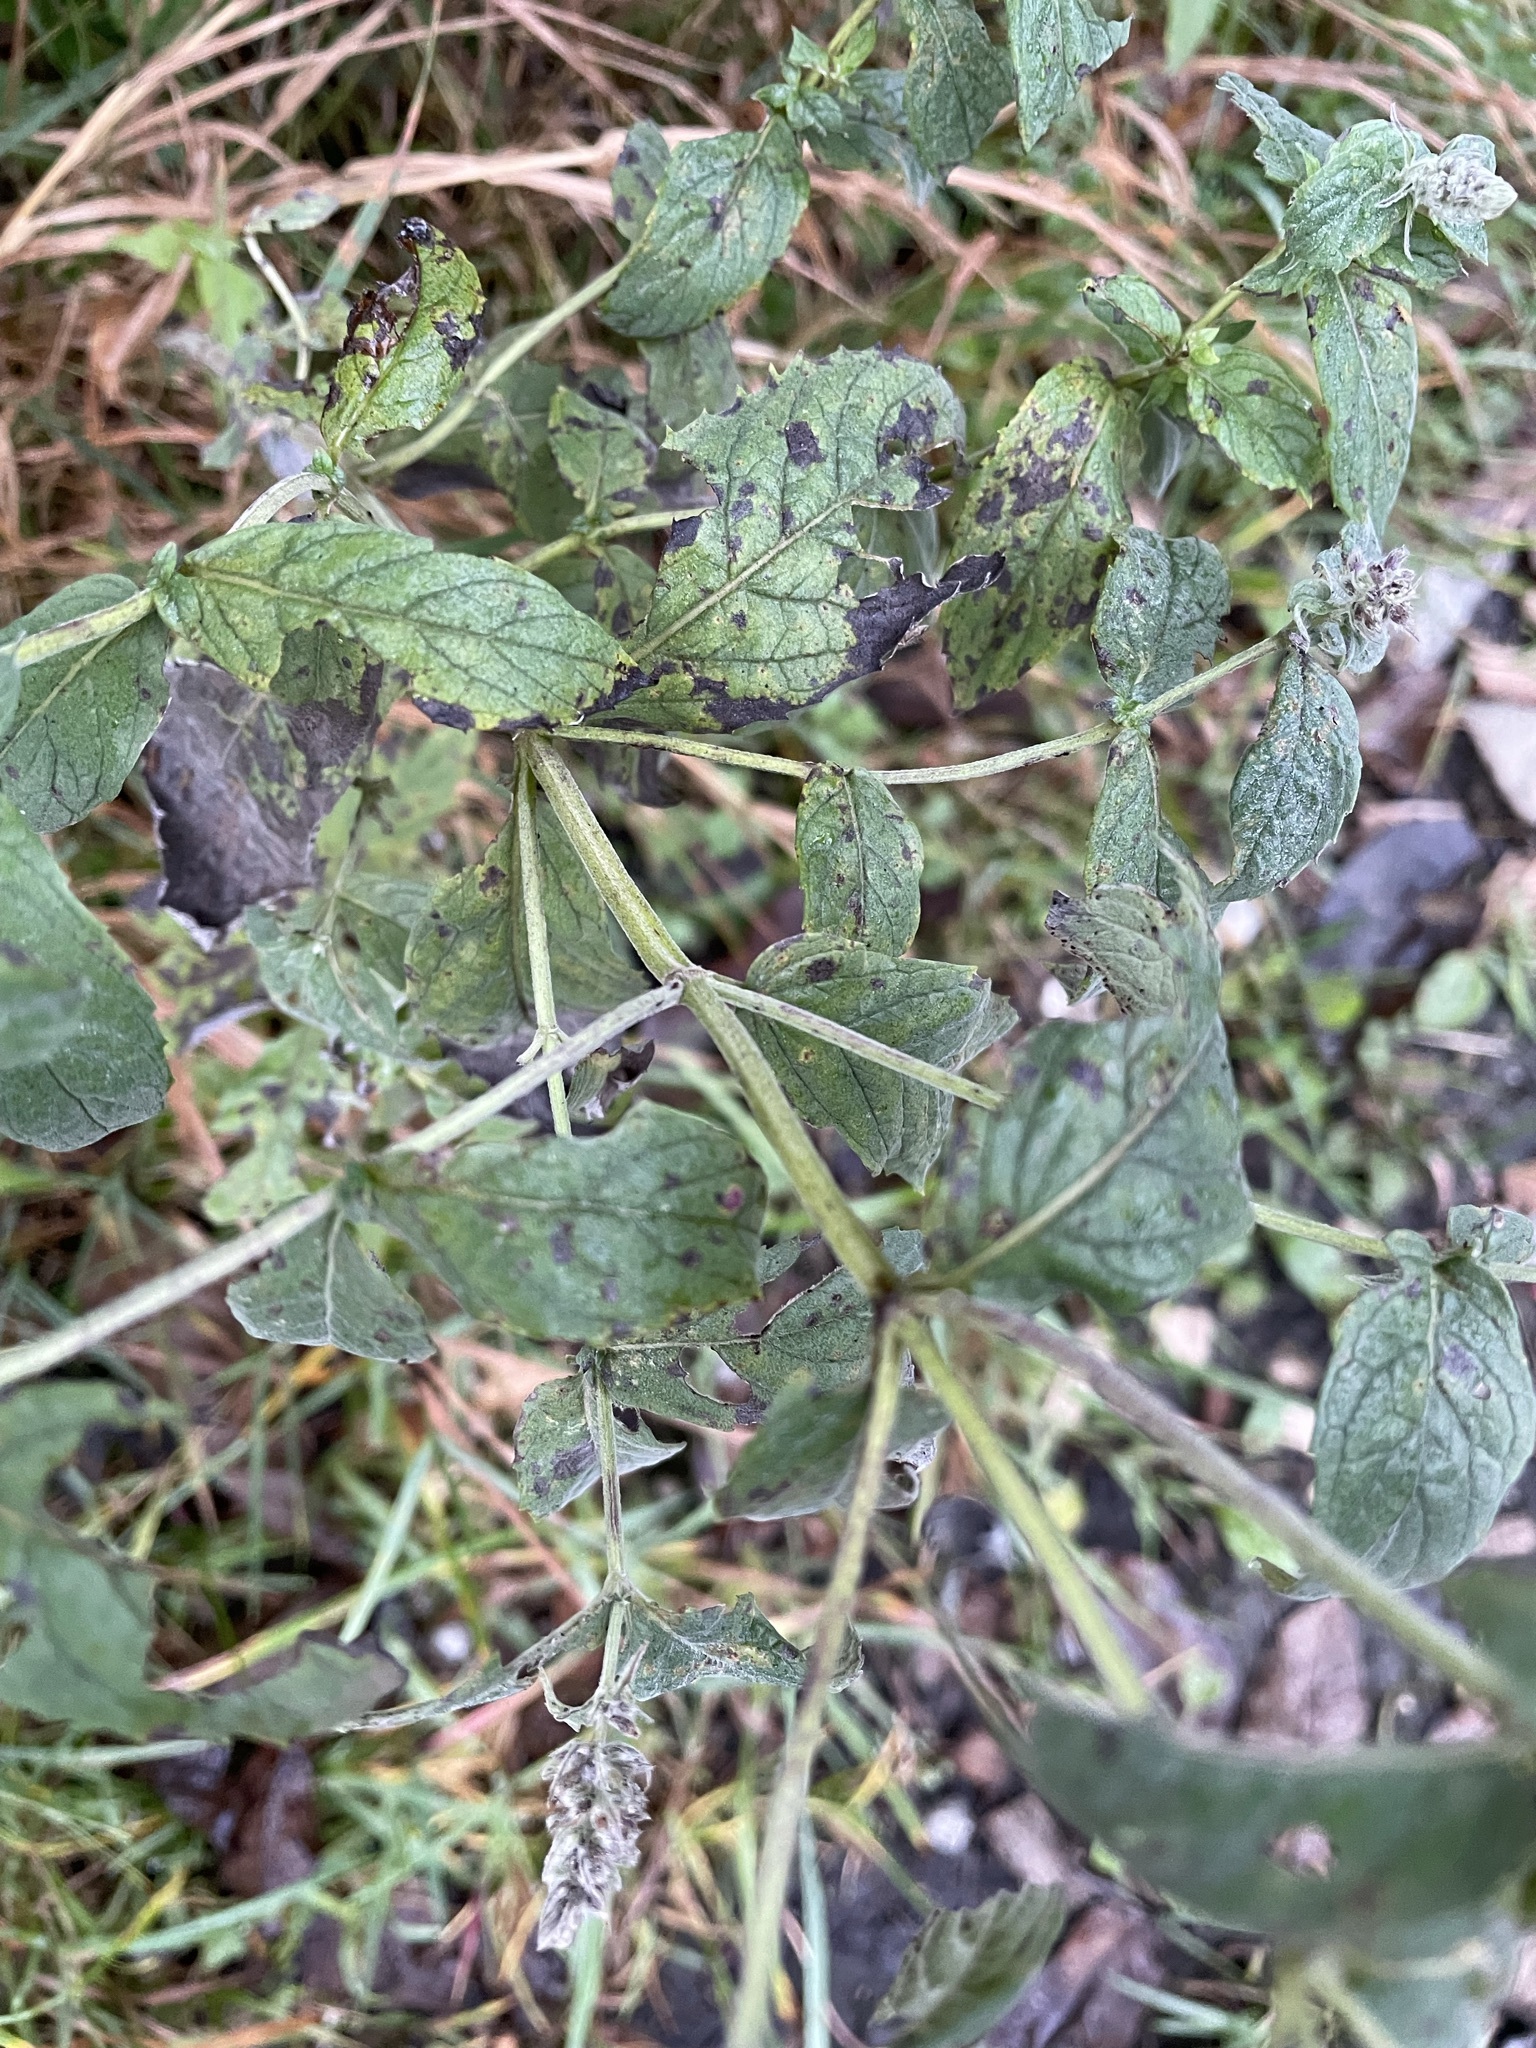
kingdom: Plantae
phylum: Tracheophyta
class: Magnoliopsida
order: Lamiales
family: Lamiaceae
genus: Mentha
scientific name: Mentha longifolia
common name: Horse mint
